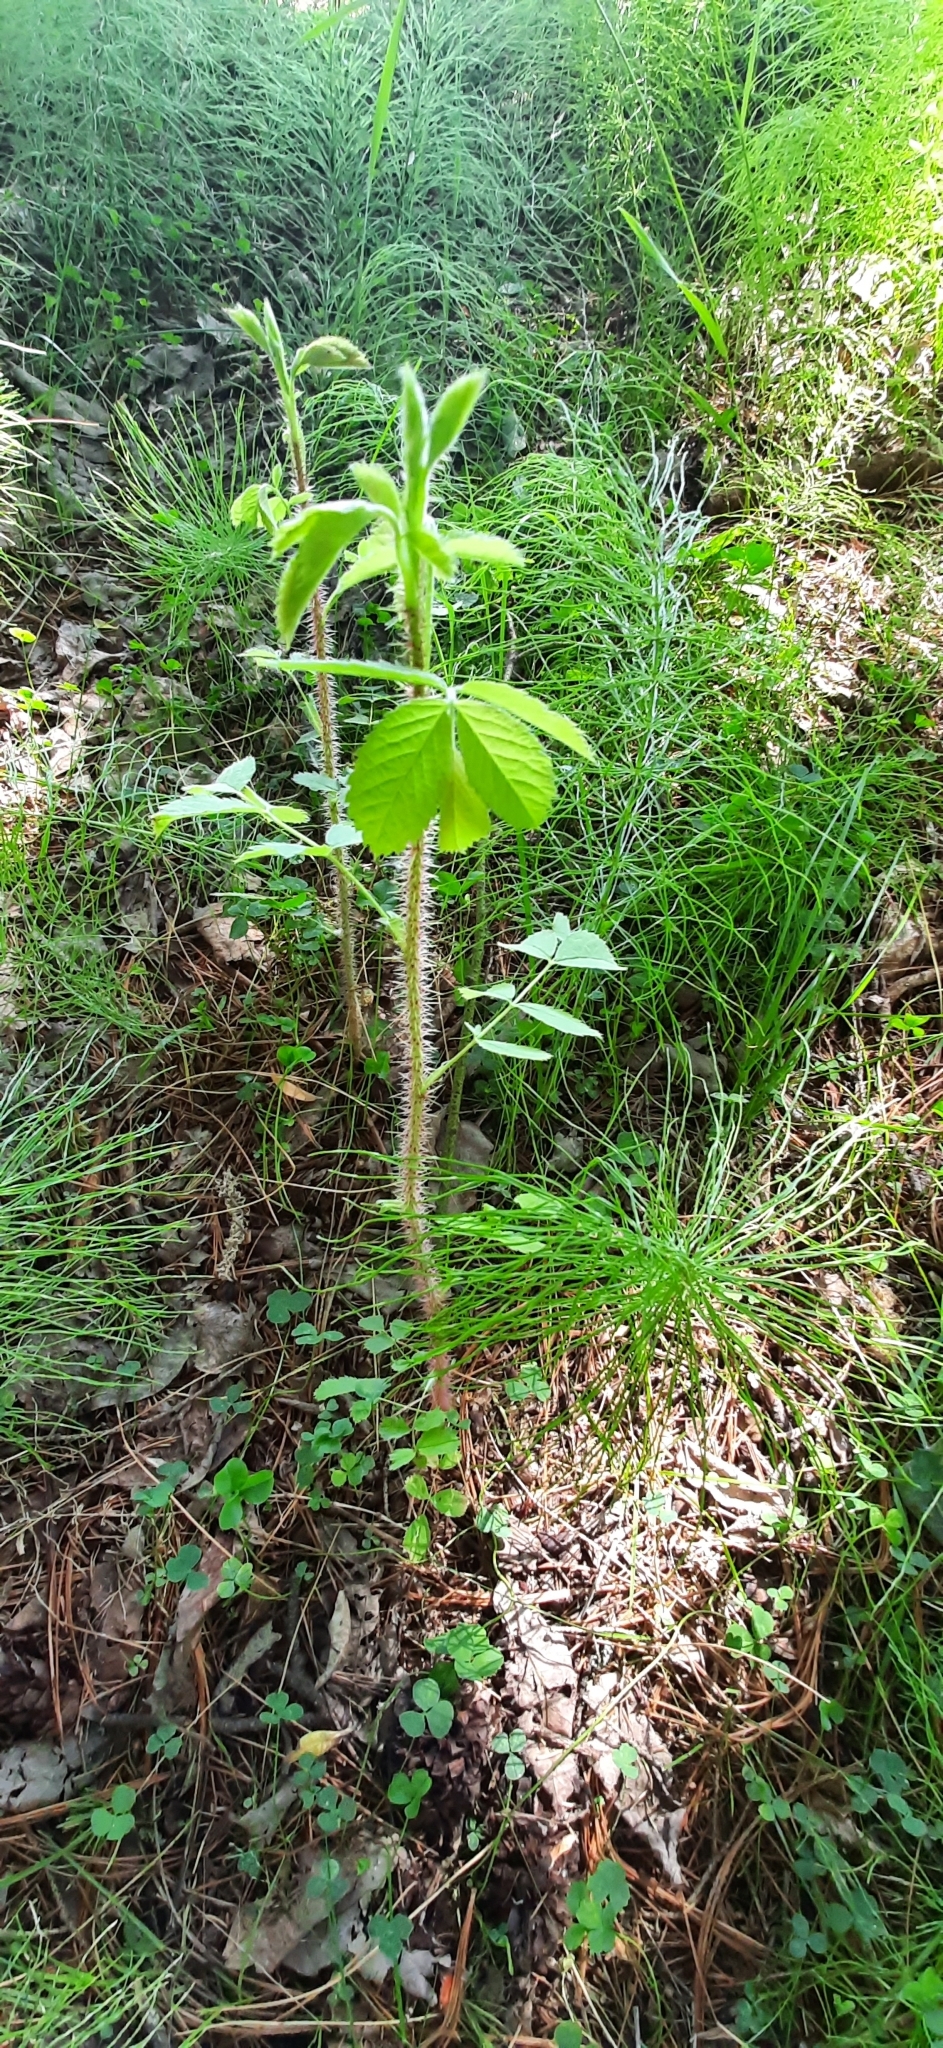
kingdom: Plantae
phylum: Tracheophyta
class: Magnoliopsida
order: Rosales
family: Rosaceae
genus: Rosa
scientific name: Rosa acicularis
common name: Prickly rose
